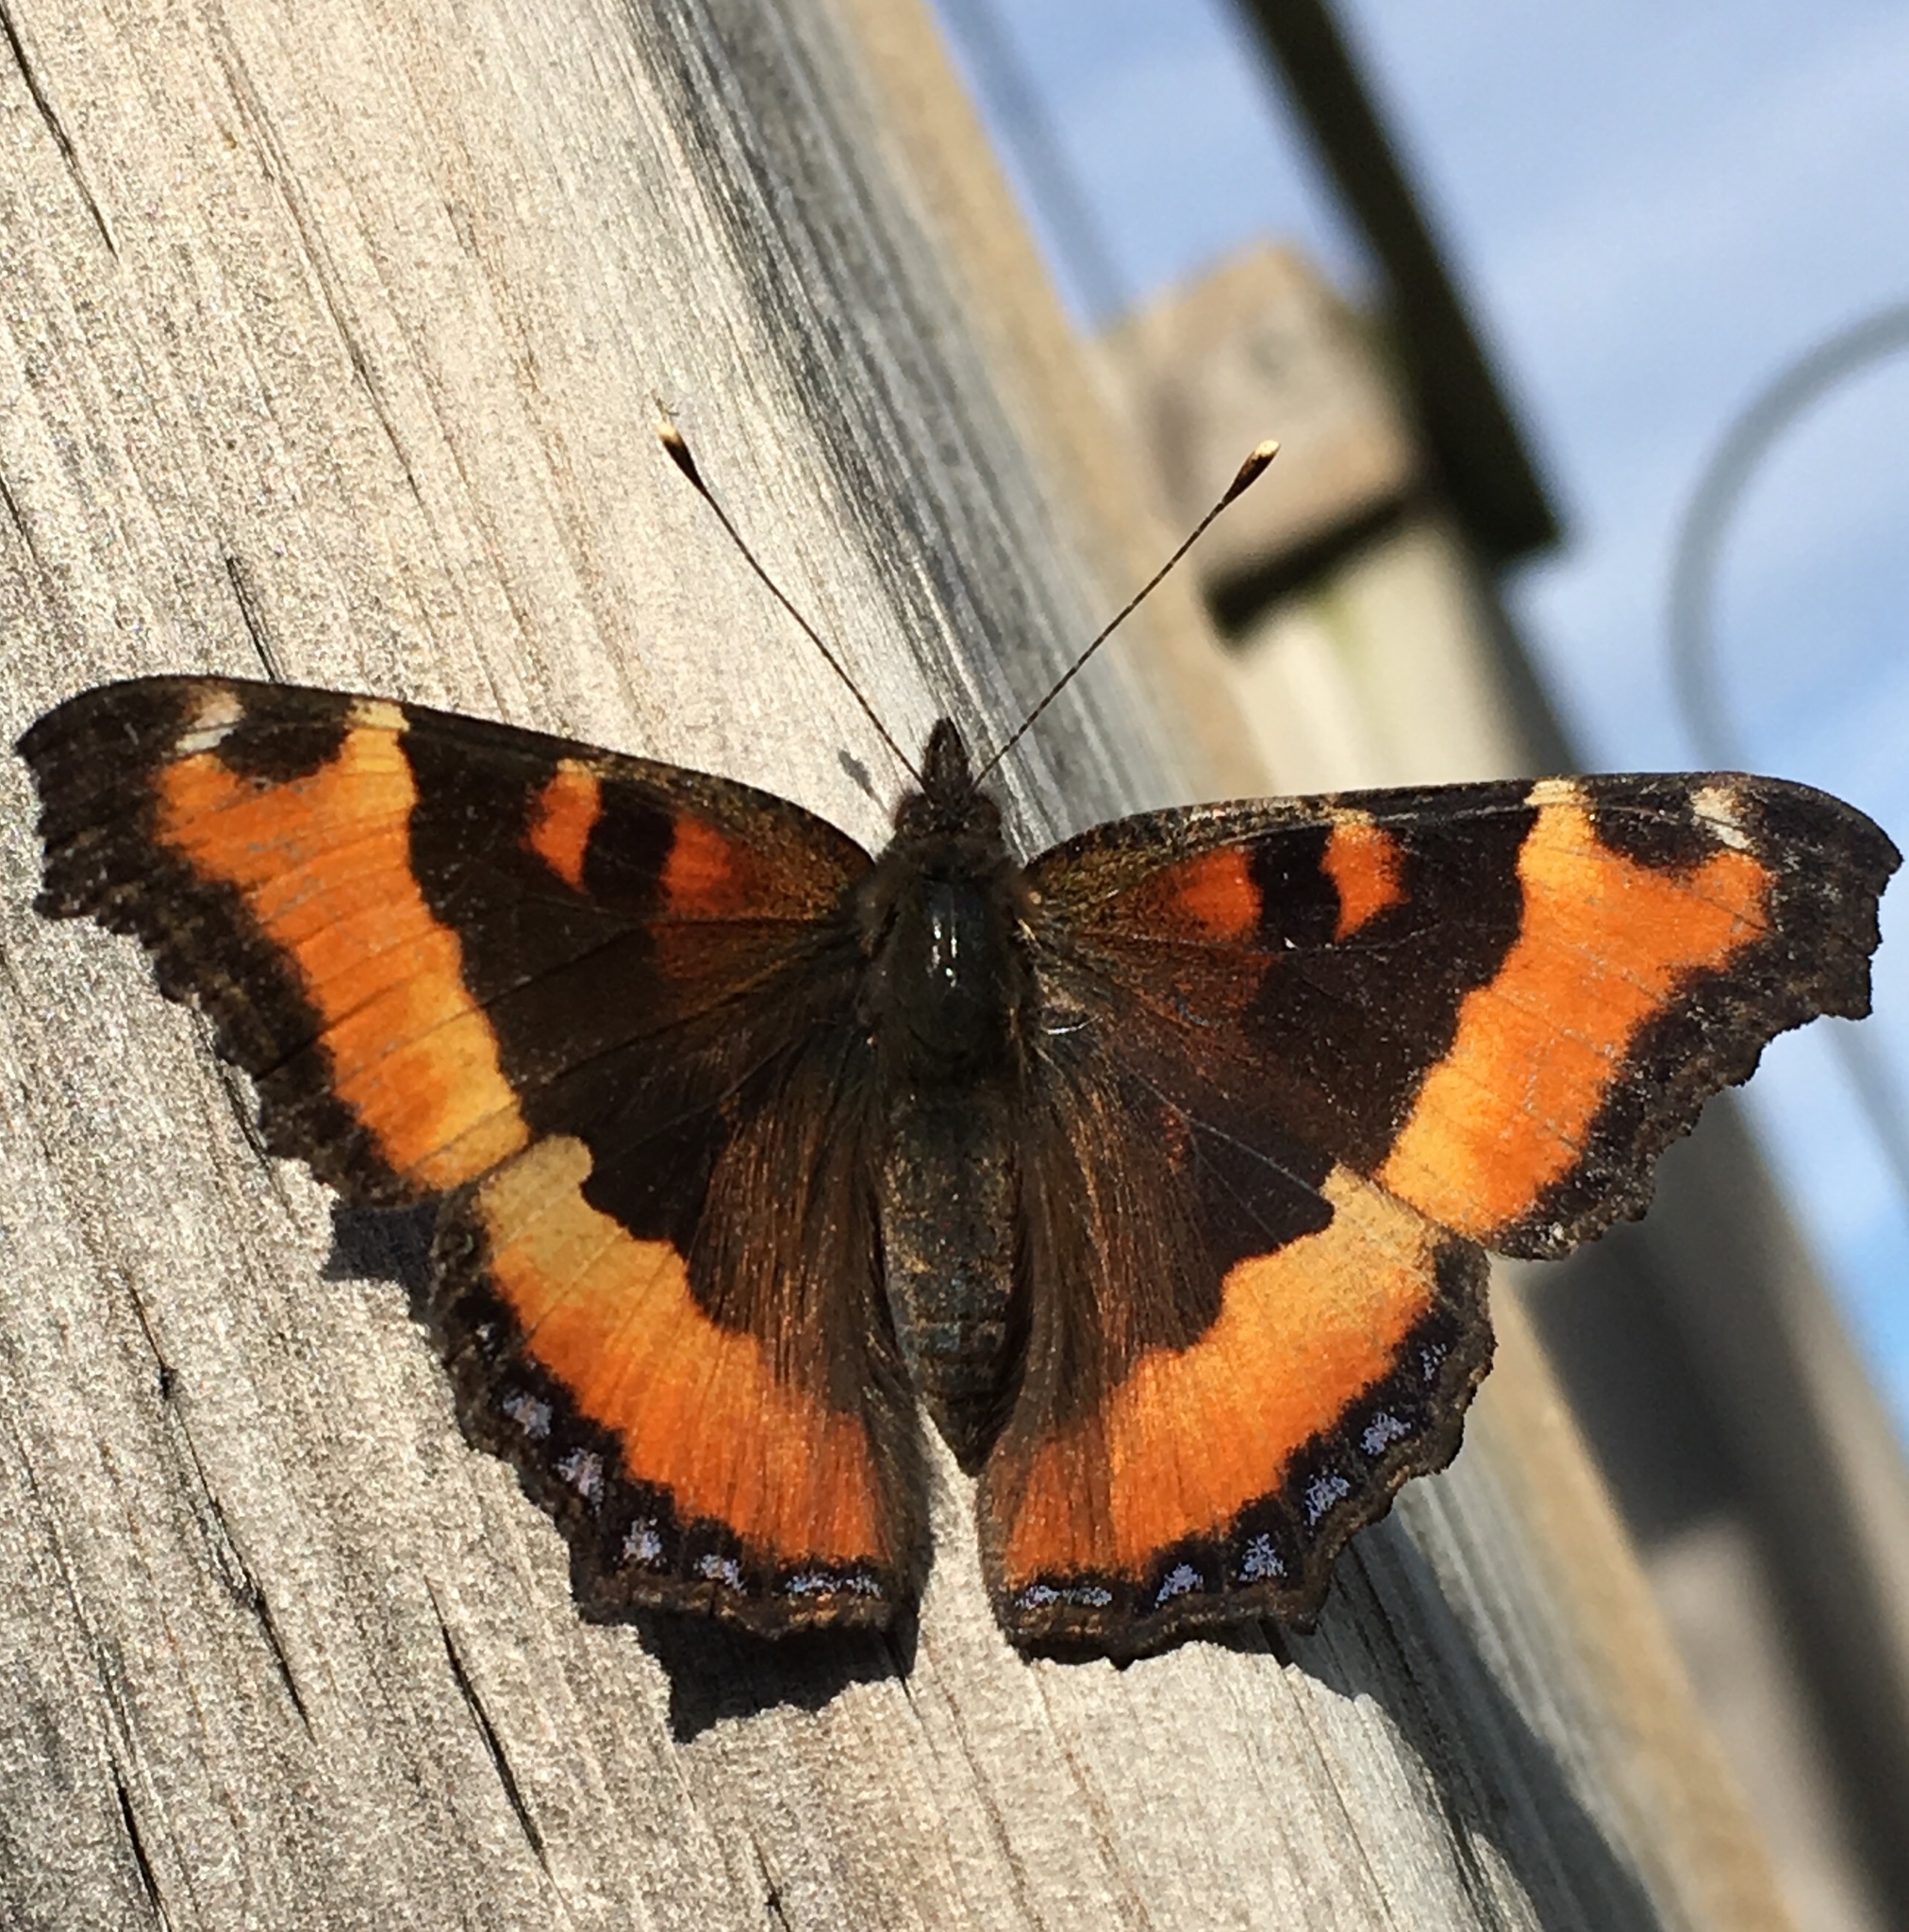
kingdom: Animalia
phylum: Arthropoda
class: Insecta
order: Lepidoptera
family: Nymphalidae
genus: Aglais
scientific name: Aglais milberti
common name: Milbert's tortoiseshell
